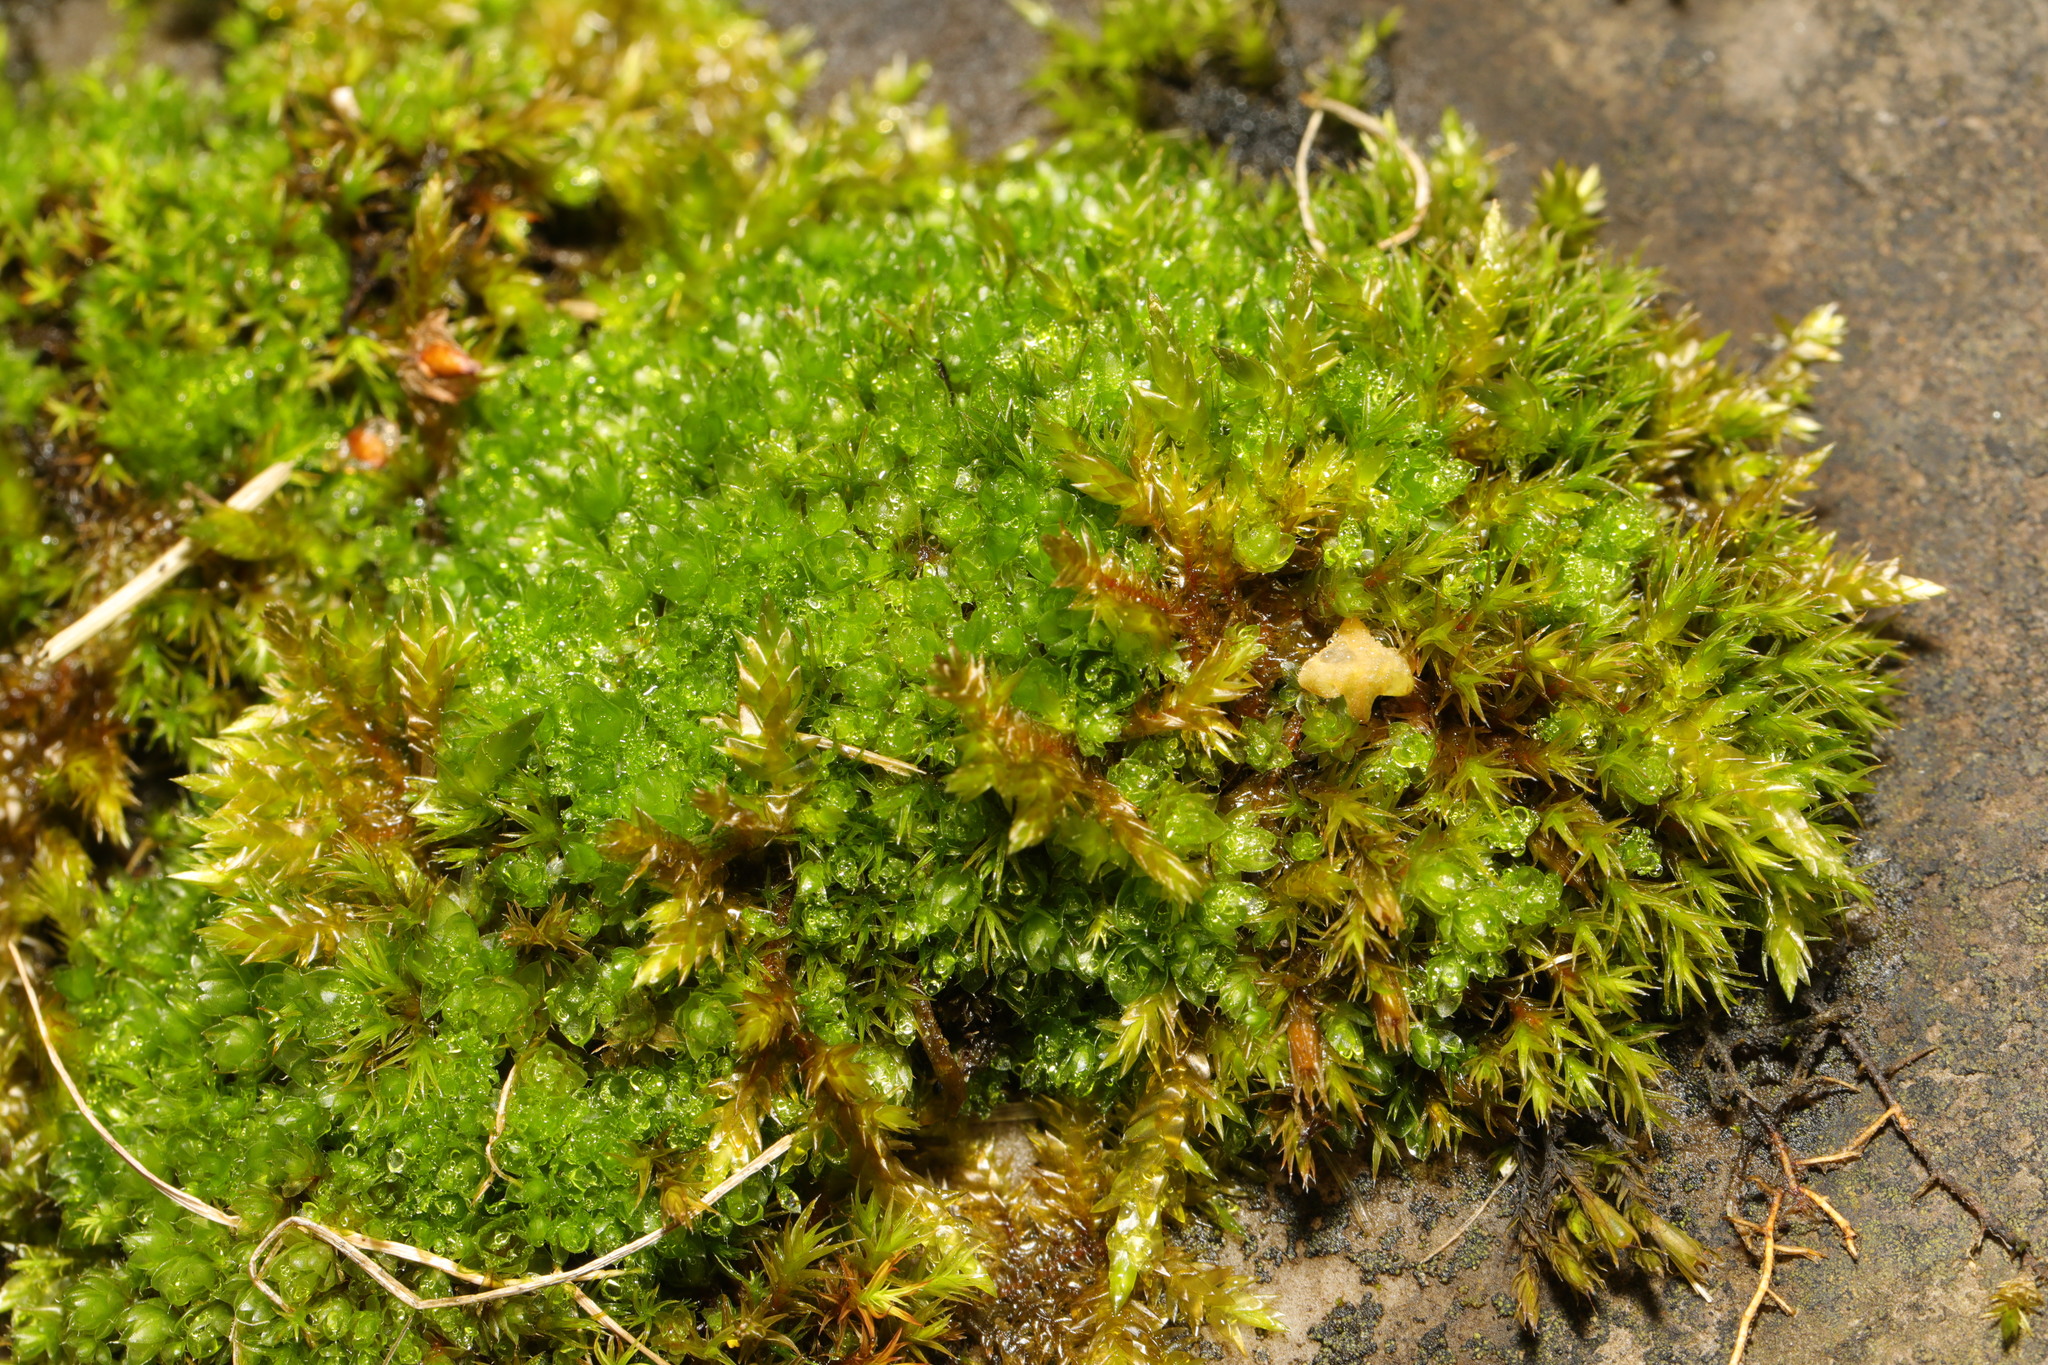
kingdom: Plantae
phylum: Bryophyta
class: Bryopsida
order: Bryales
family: Bryaceae
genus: Rosulabryum
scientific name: Rosulabryum capillare
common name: Capillary thread-moss
